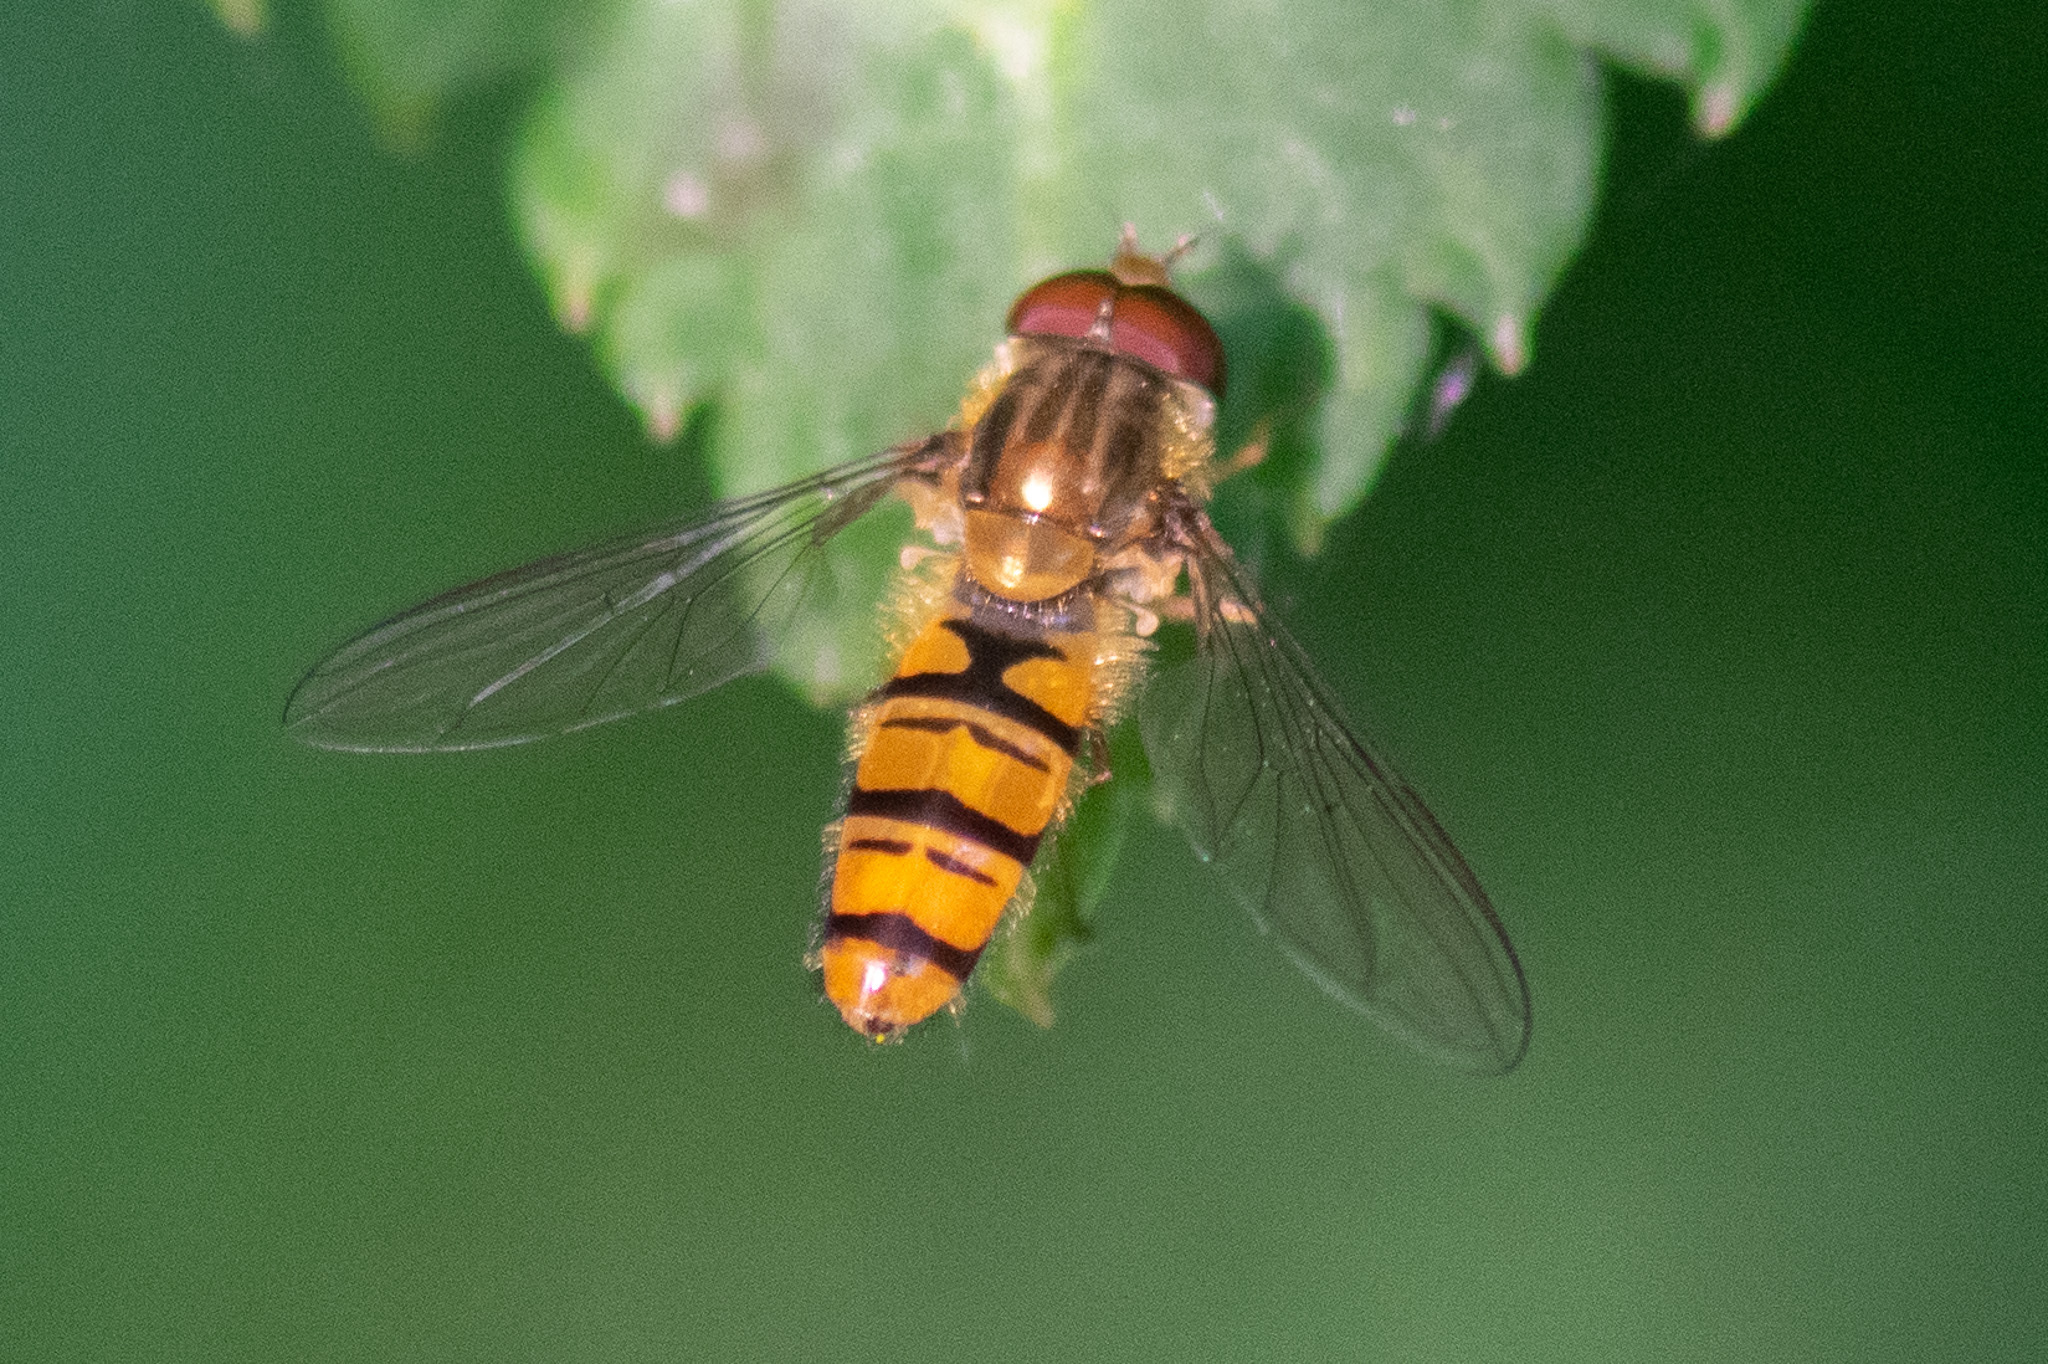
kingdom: Animalia
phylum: Arthropoda
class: Insecta
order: Diptera
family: Syrphidae
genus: Episyrphus
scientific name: Episyrphus balteatus
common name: Marmalade hoverfly
